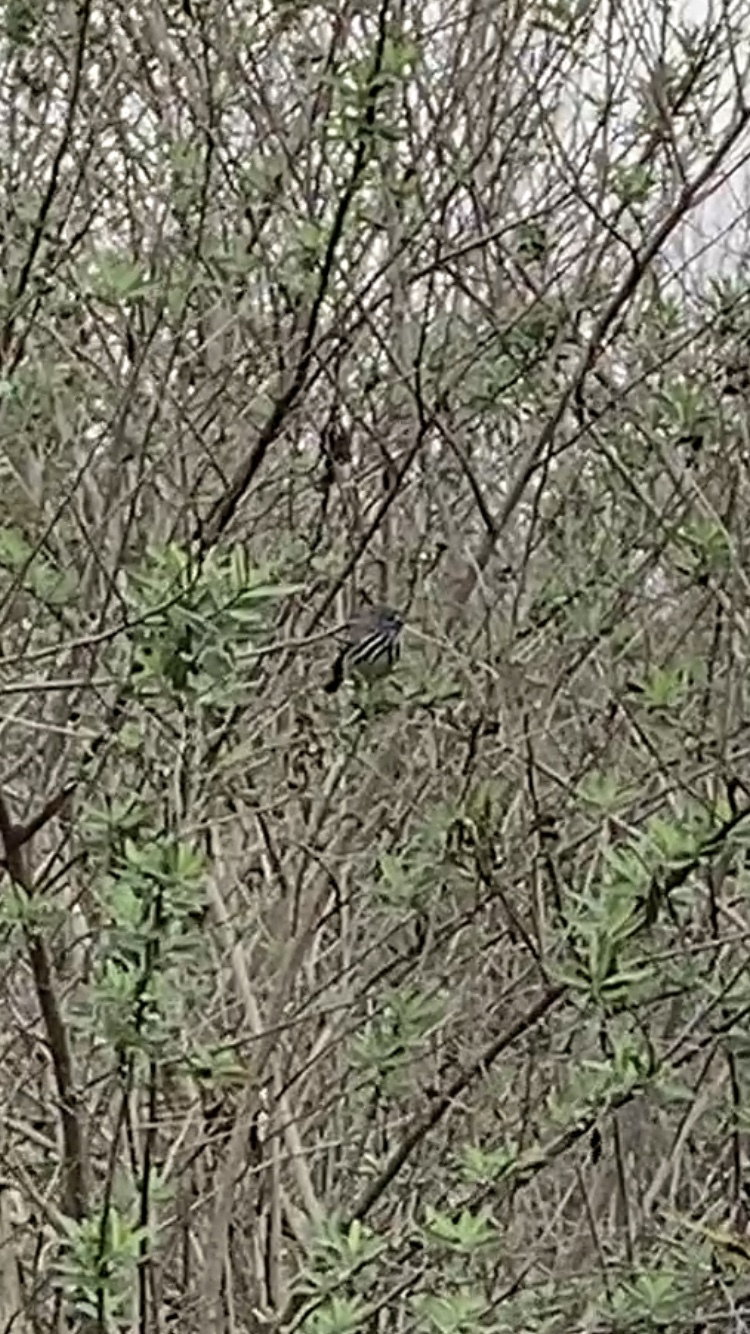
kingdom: Animalia
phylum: Chordata
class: Aves
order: Passeriformes
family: Tyrannidae
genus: Anairetes
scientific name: Anairetes flavirostris
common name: Yellow-billed tit-tyrant
